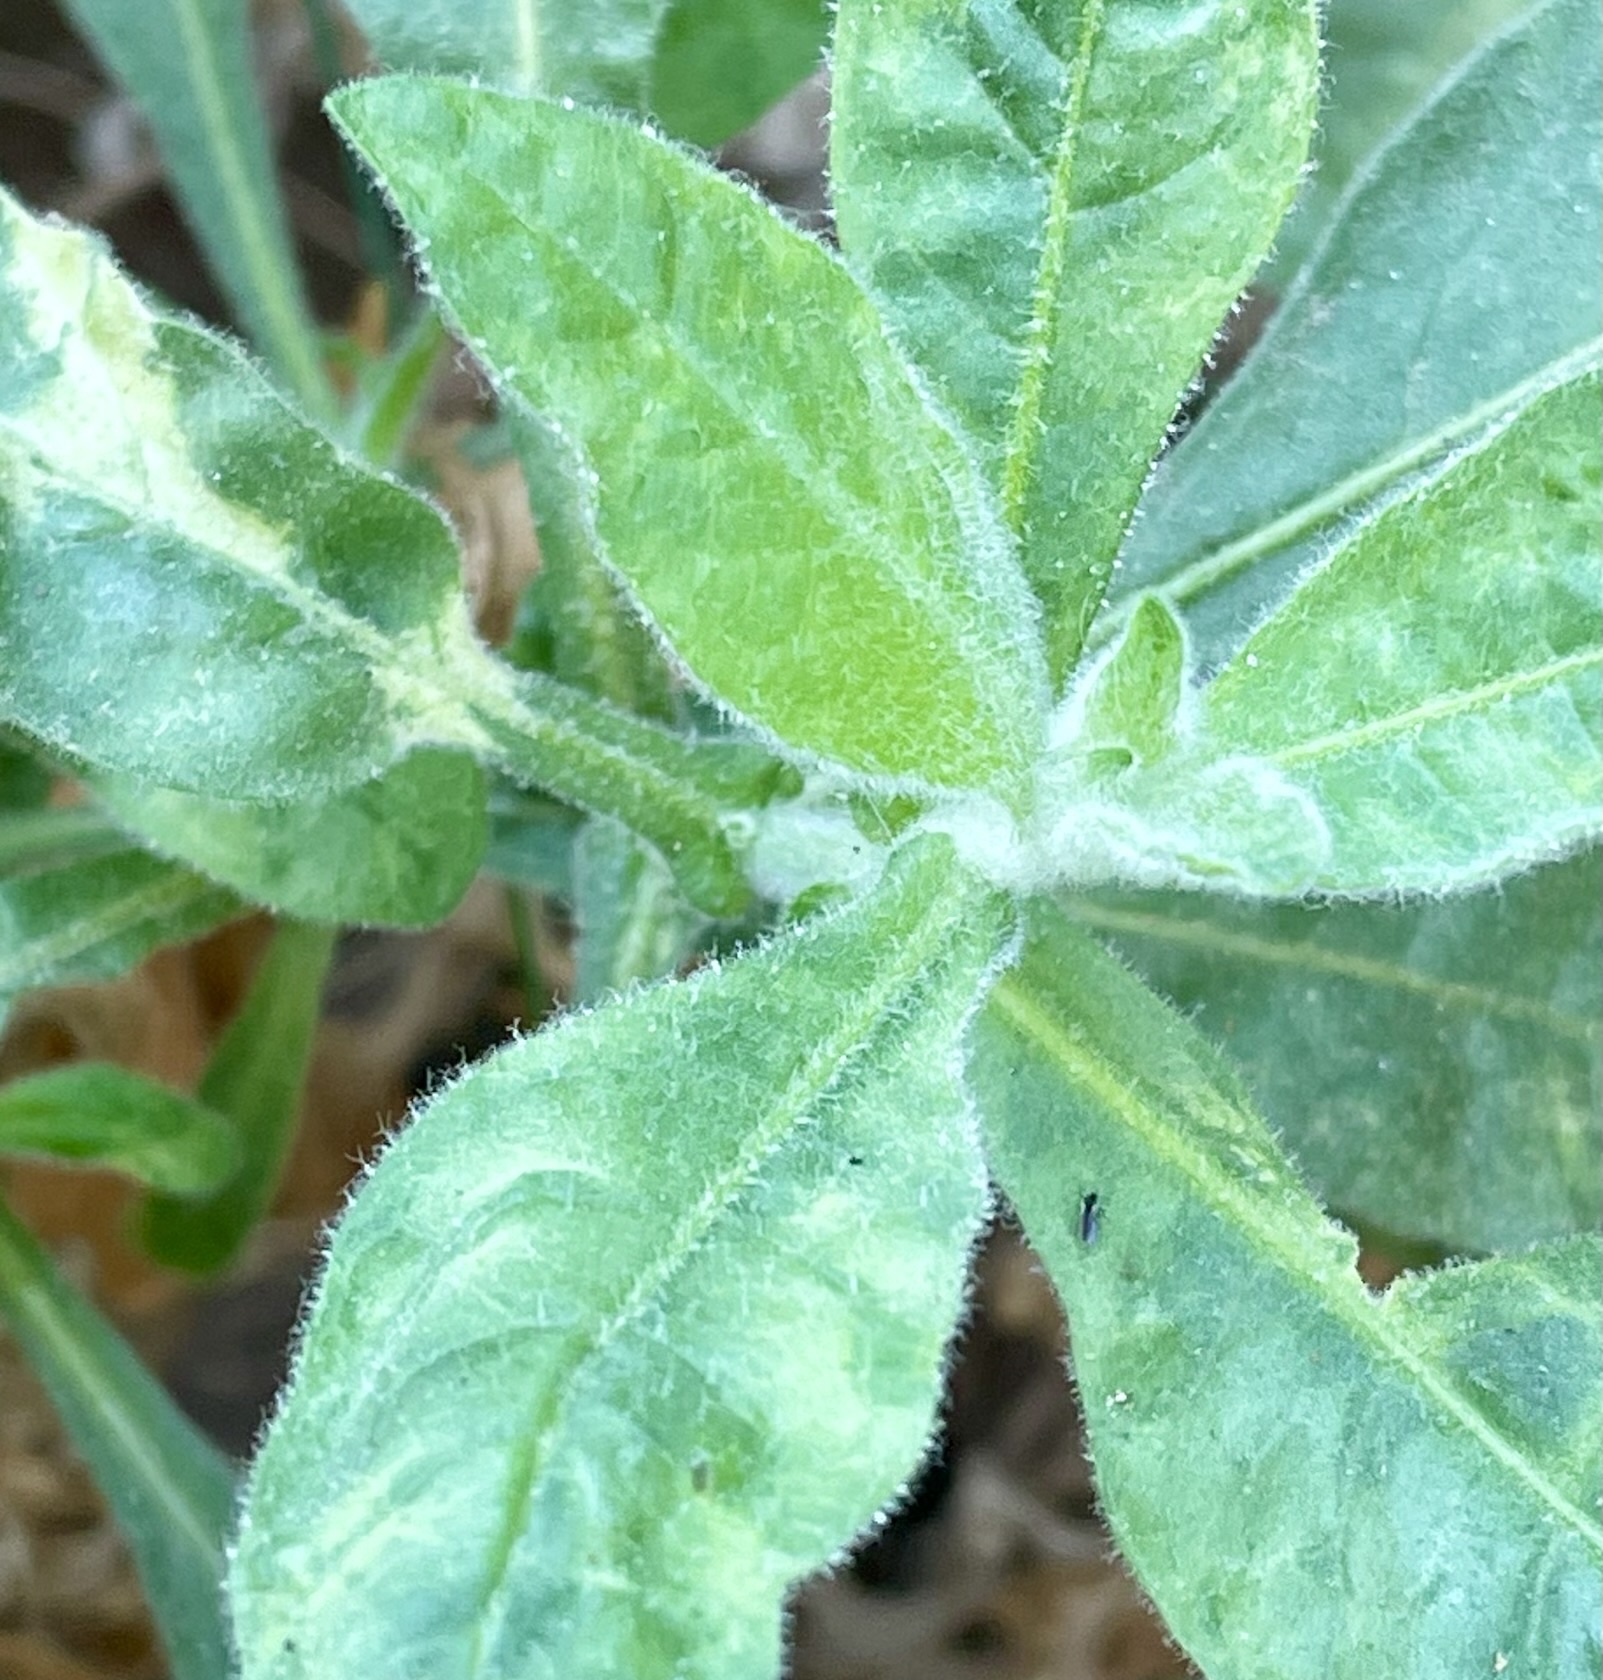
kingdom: Plantae
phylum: Tracheophyta
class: Magnoliopsida
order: Solanales
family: Solanaceae
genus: Nicotiana
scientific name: Nicotiana obtusifolia
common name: Desert tobacco
